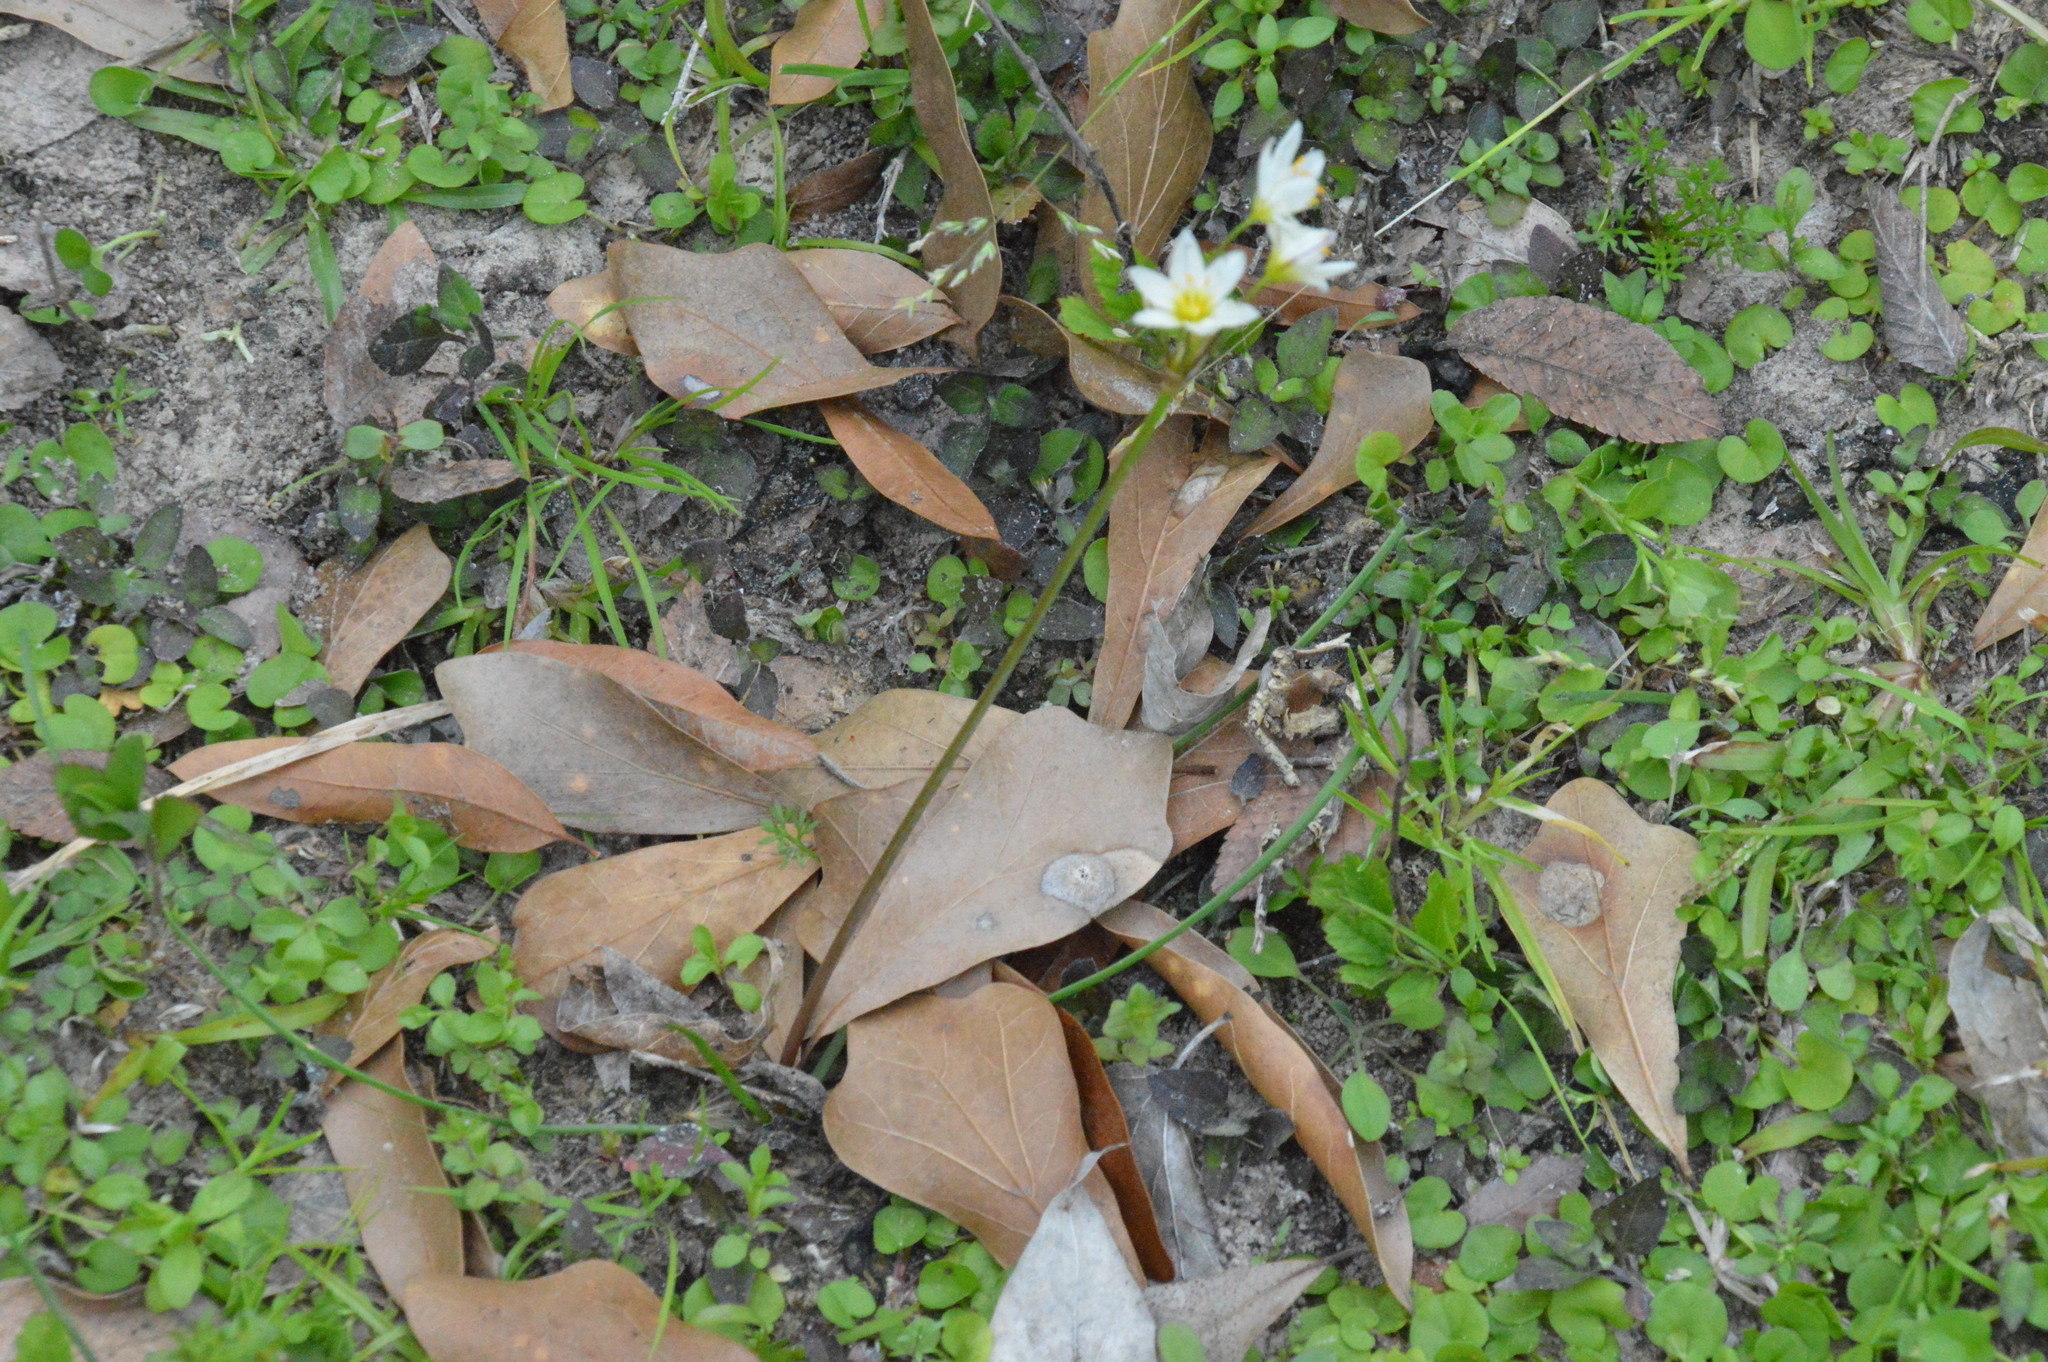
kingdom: Plantae
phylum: Tracheophyta
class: Liliopsida
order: Asparagales
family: Amaryllidaceae
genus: Nothoscordum
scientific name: Nothoscordum bivalve
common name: Crow-poison
